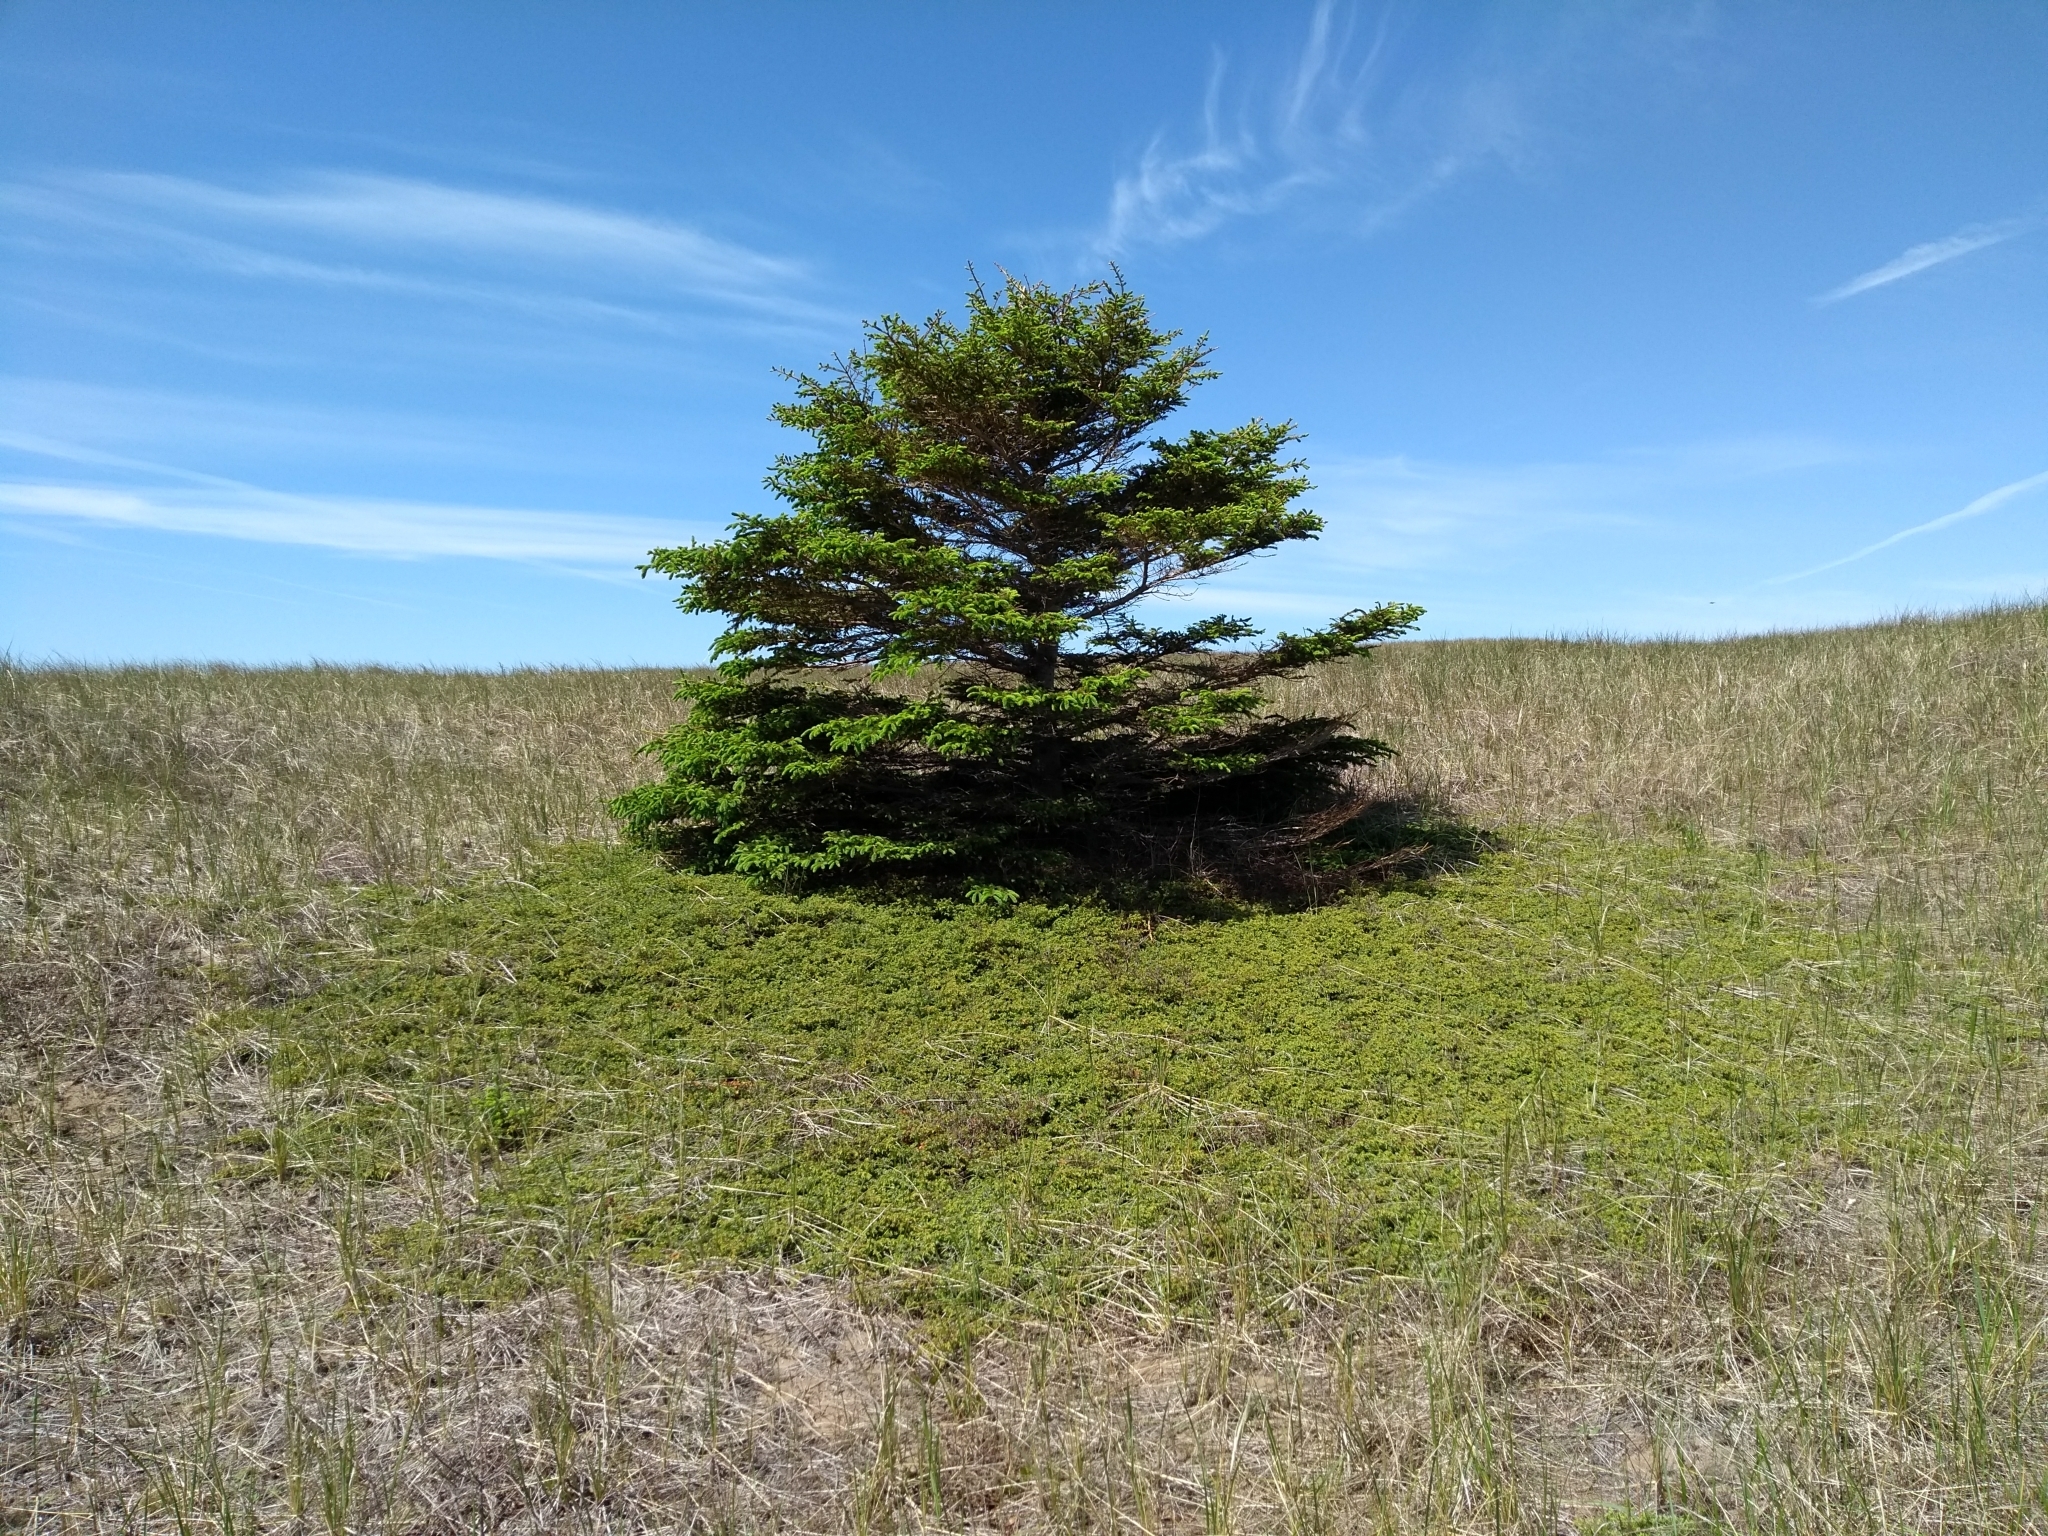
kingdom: Plantae
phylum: Tracheophyta
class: Pinopsida
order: Pinales
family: Pinaceae
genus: Picea
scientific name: Picea glauca
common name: White spruce
